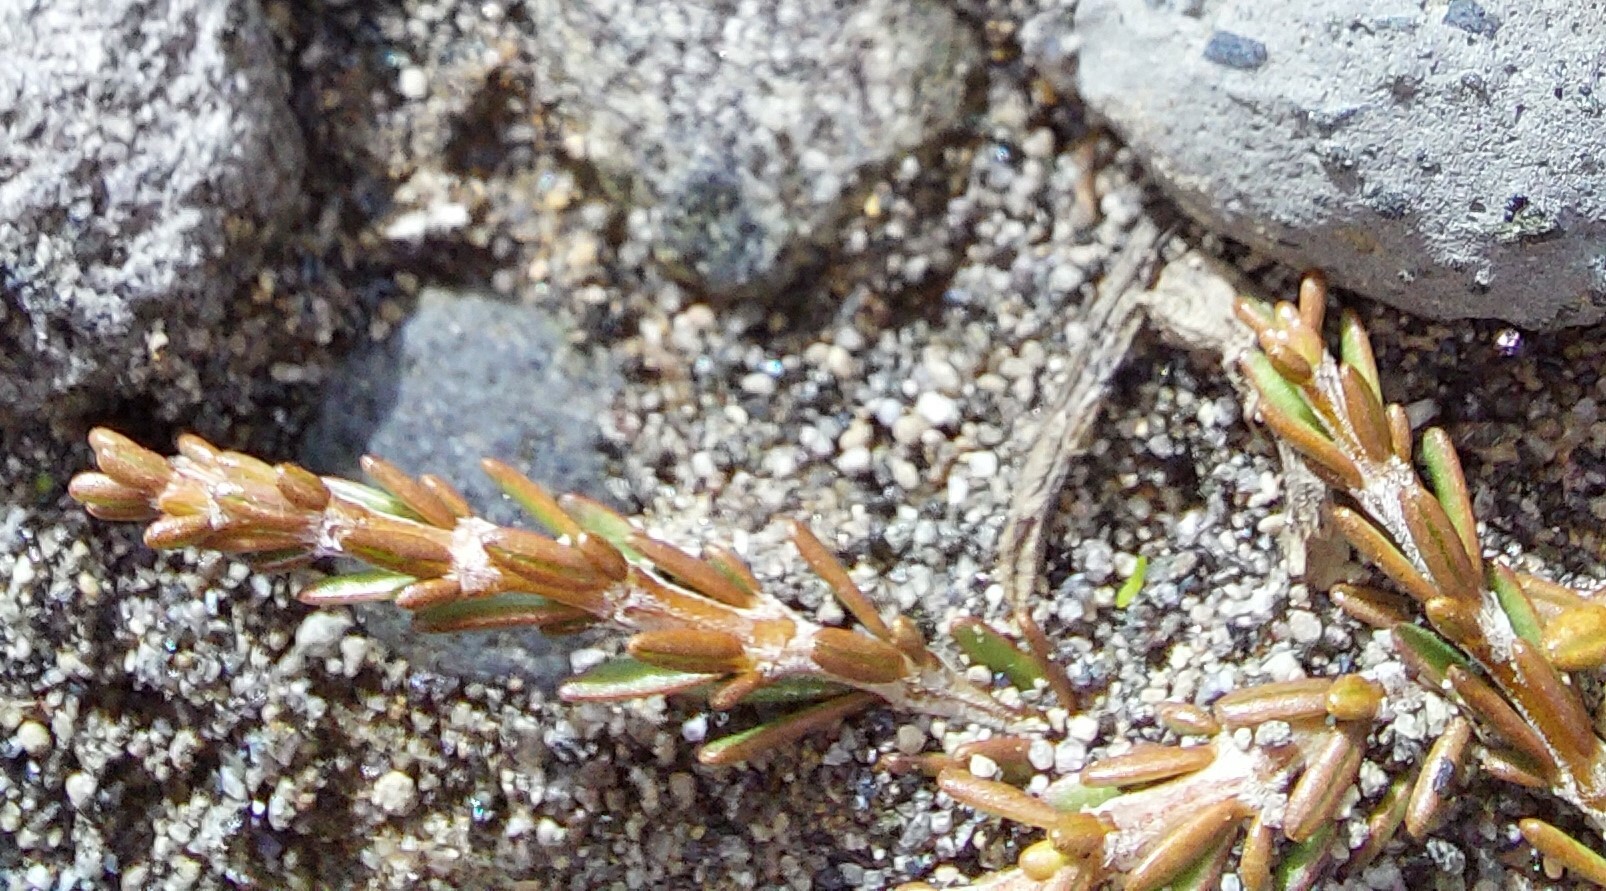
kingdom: Plantae
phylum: Tracheophyta
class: Magnoliopsida
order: Gentianales
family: Rubiaceae
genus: Coprosma
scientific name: Coprosma acerosa
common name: Sand coprosma
